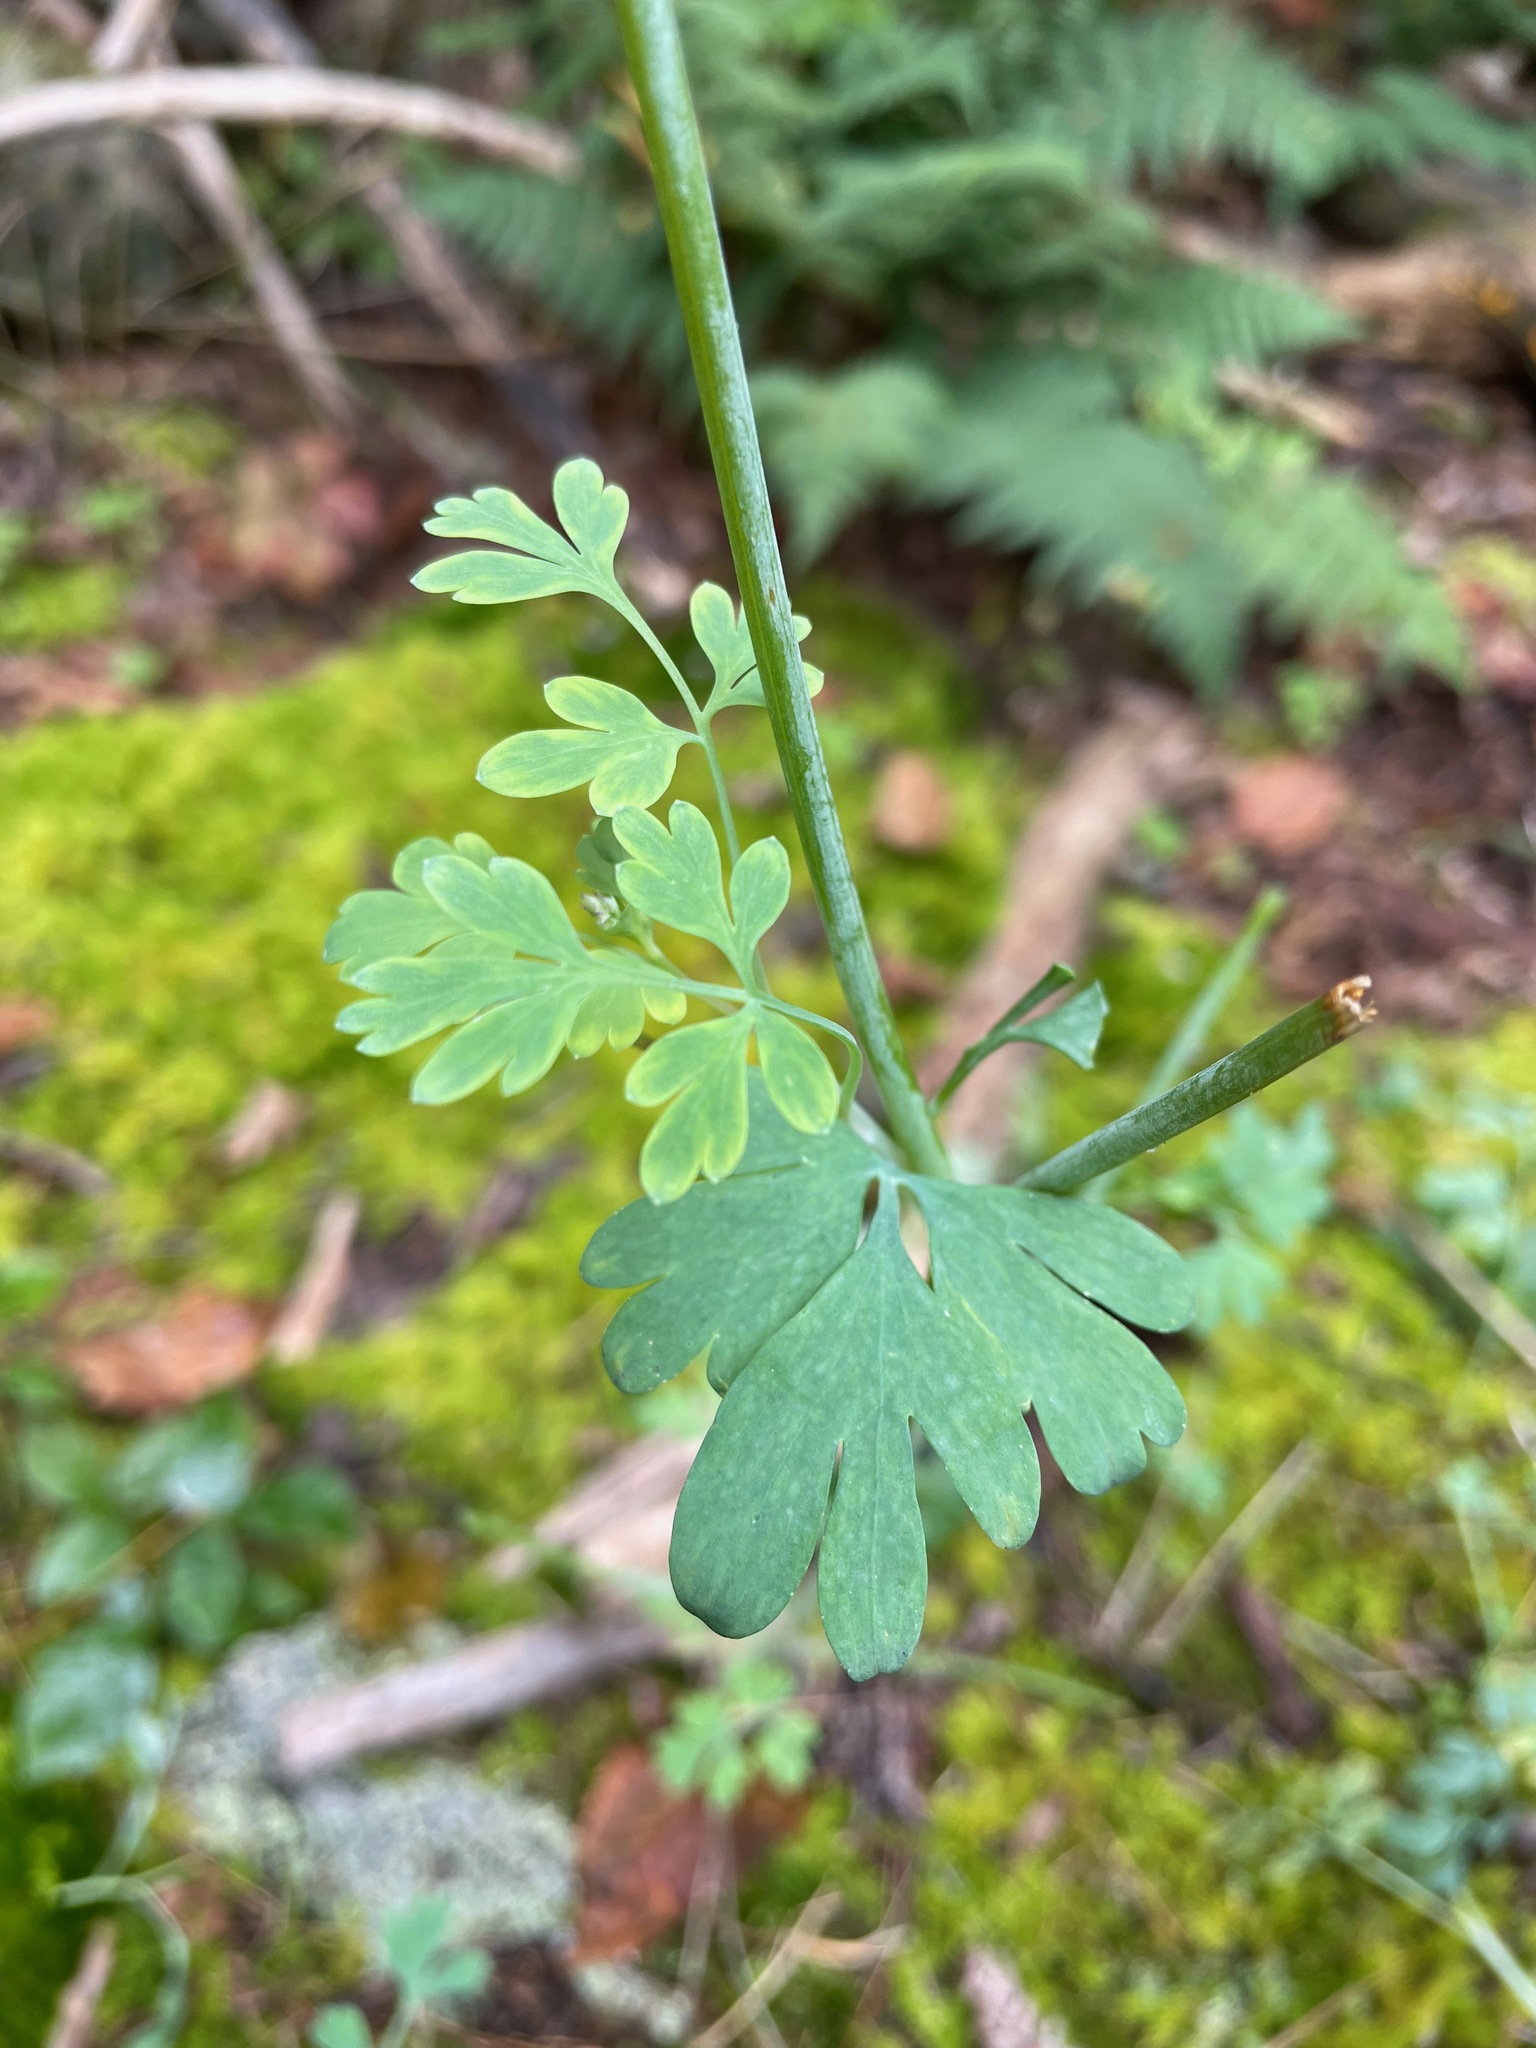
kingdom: Plantae
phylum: Tracheophyta
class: Magnoliopsida
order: Ranunculales
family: Papaveraceae
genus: Capnoides
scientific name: Capnoides sempervirens
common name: Rock harlequin
